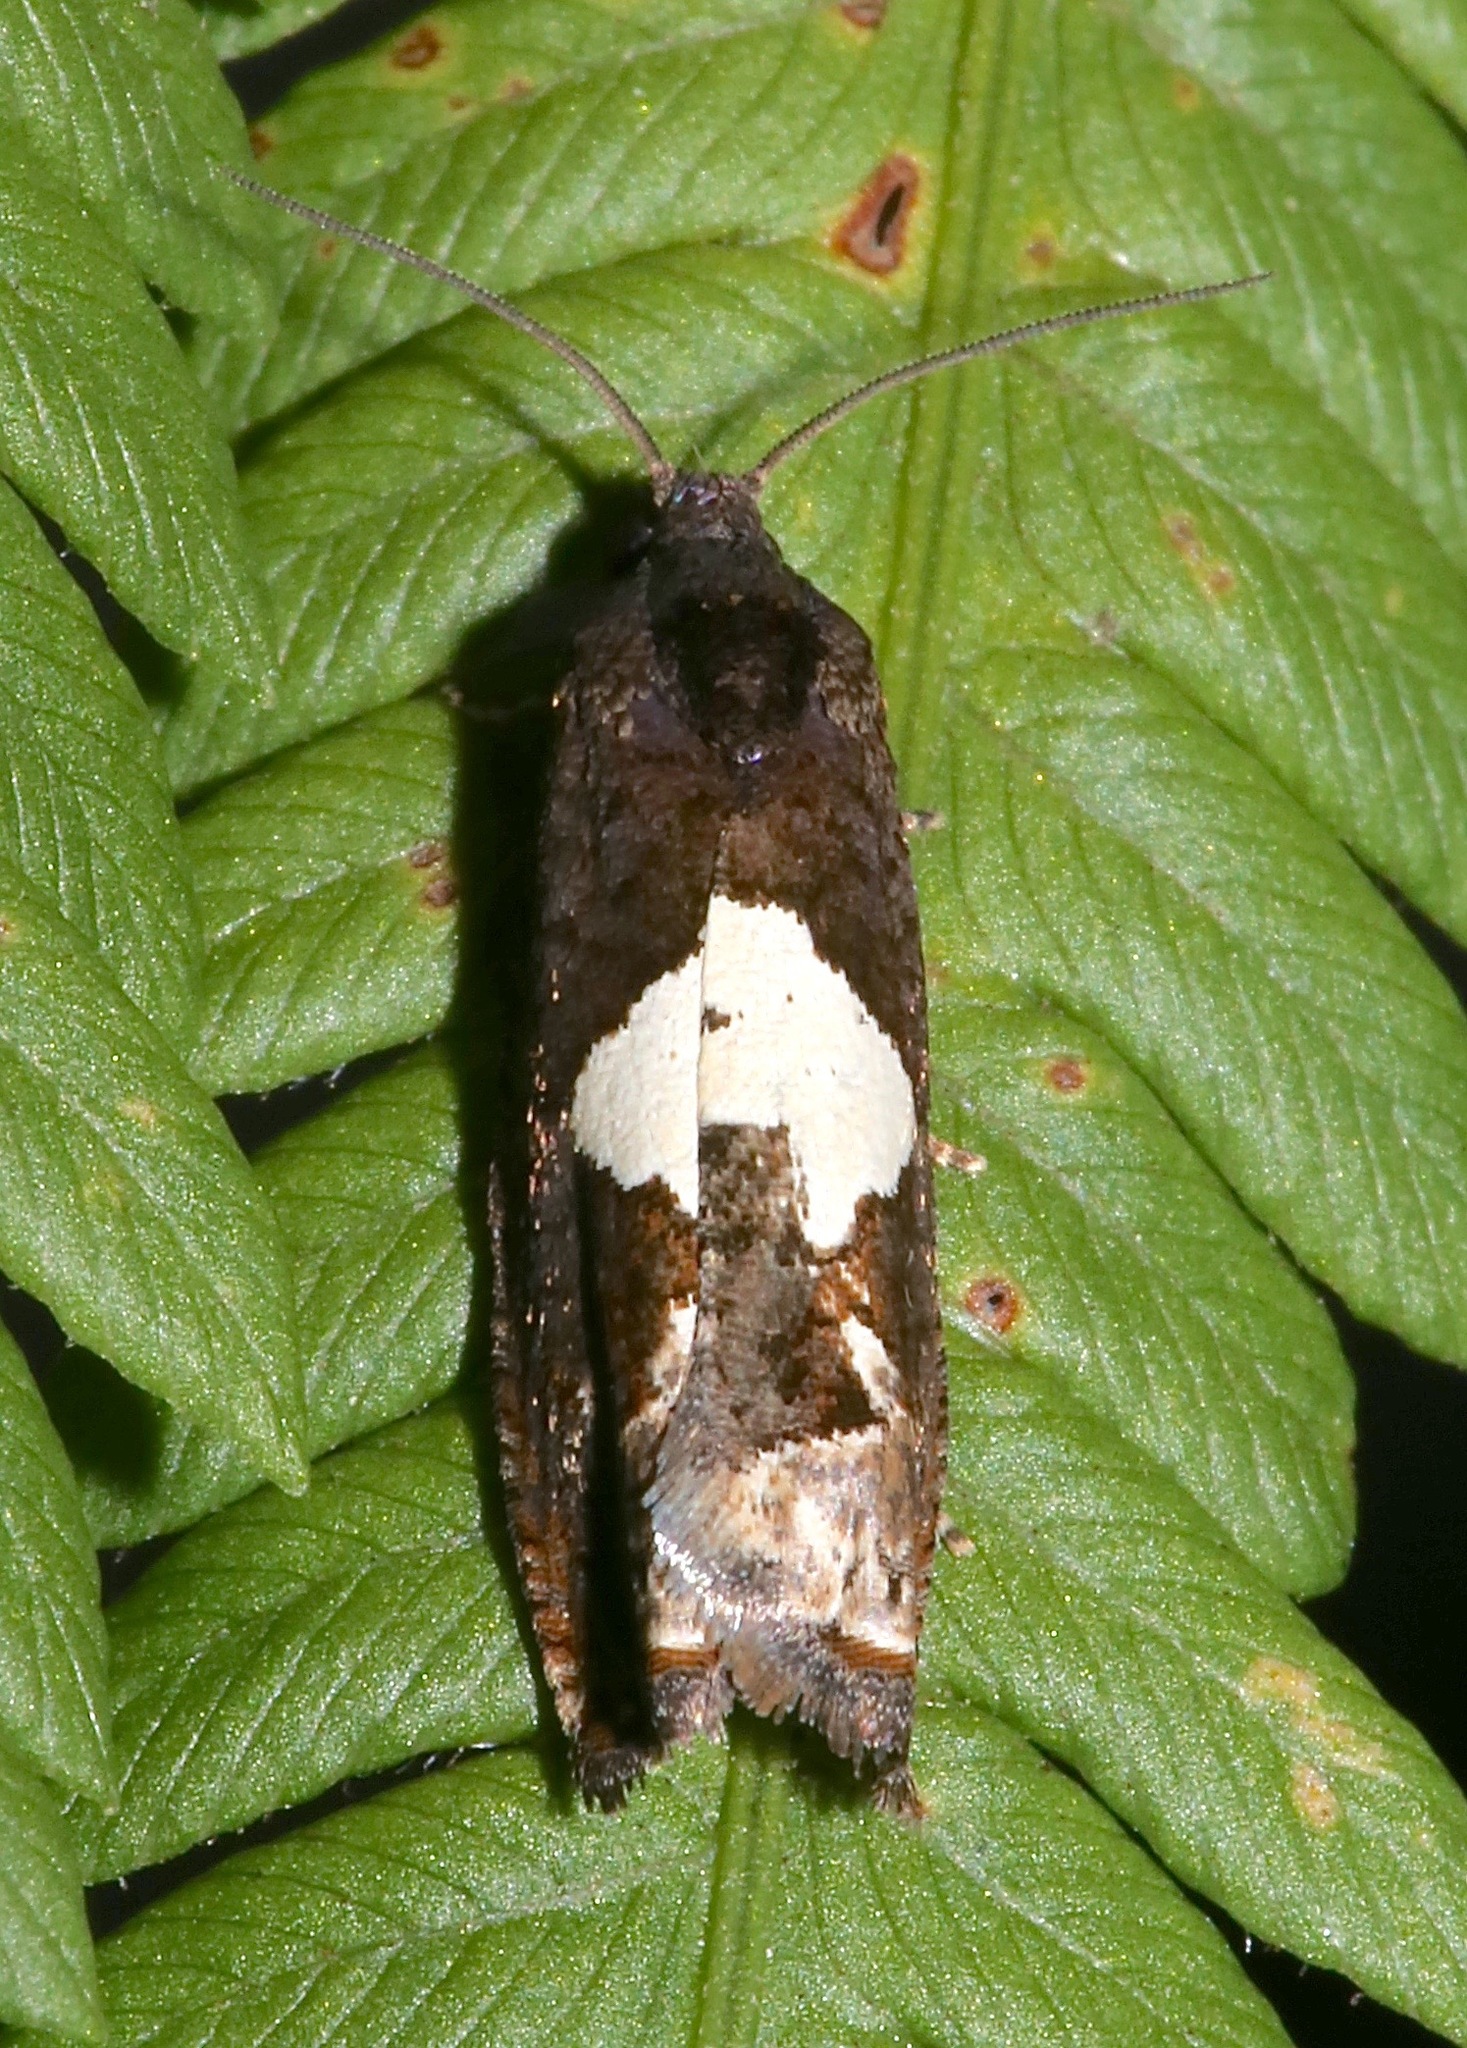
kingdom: Animalia
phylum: Arthropoda
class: Insecta
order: Lepidoptera
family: Tortricidae
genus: Epiblema
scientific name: Epiblema otiosana
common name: Bidens borer moth
